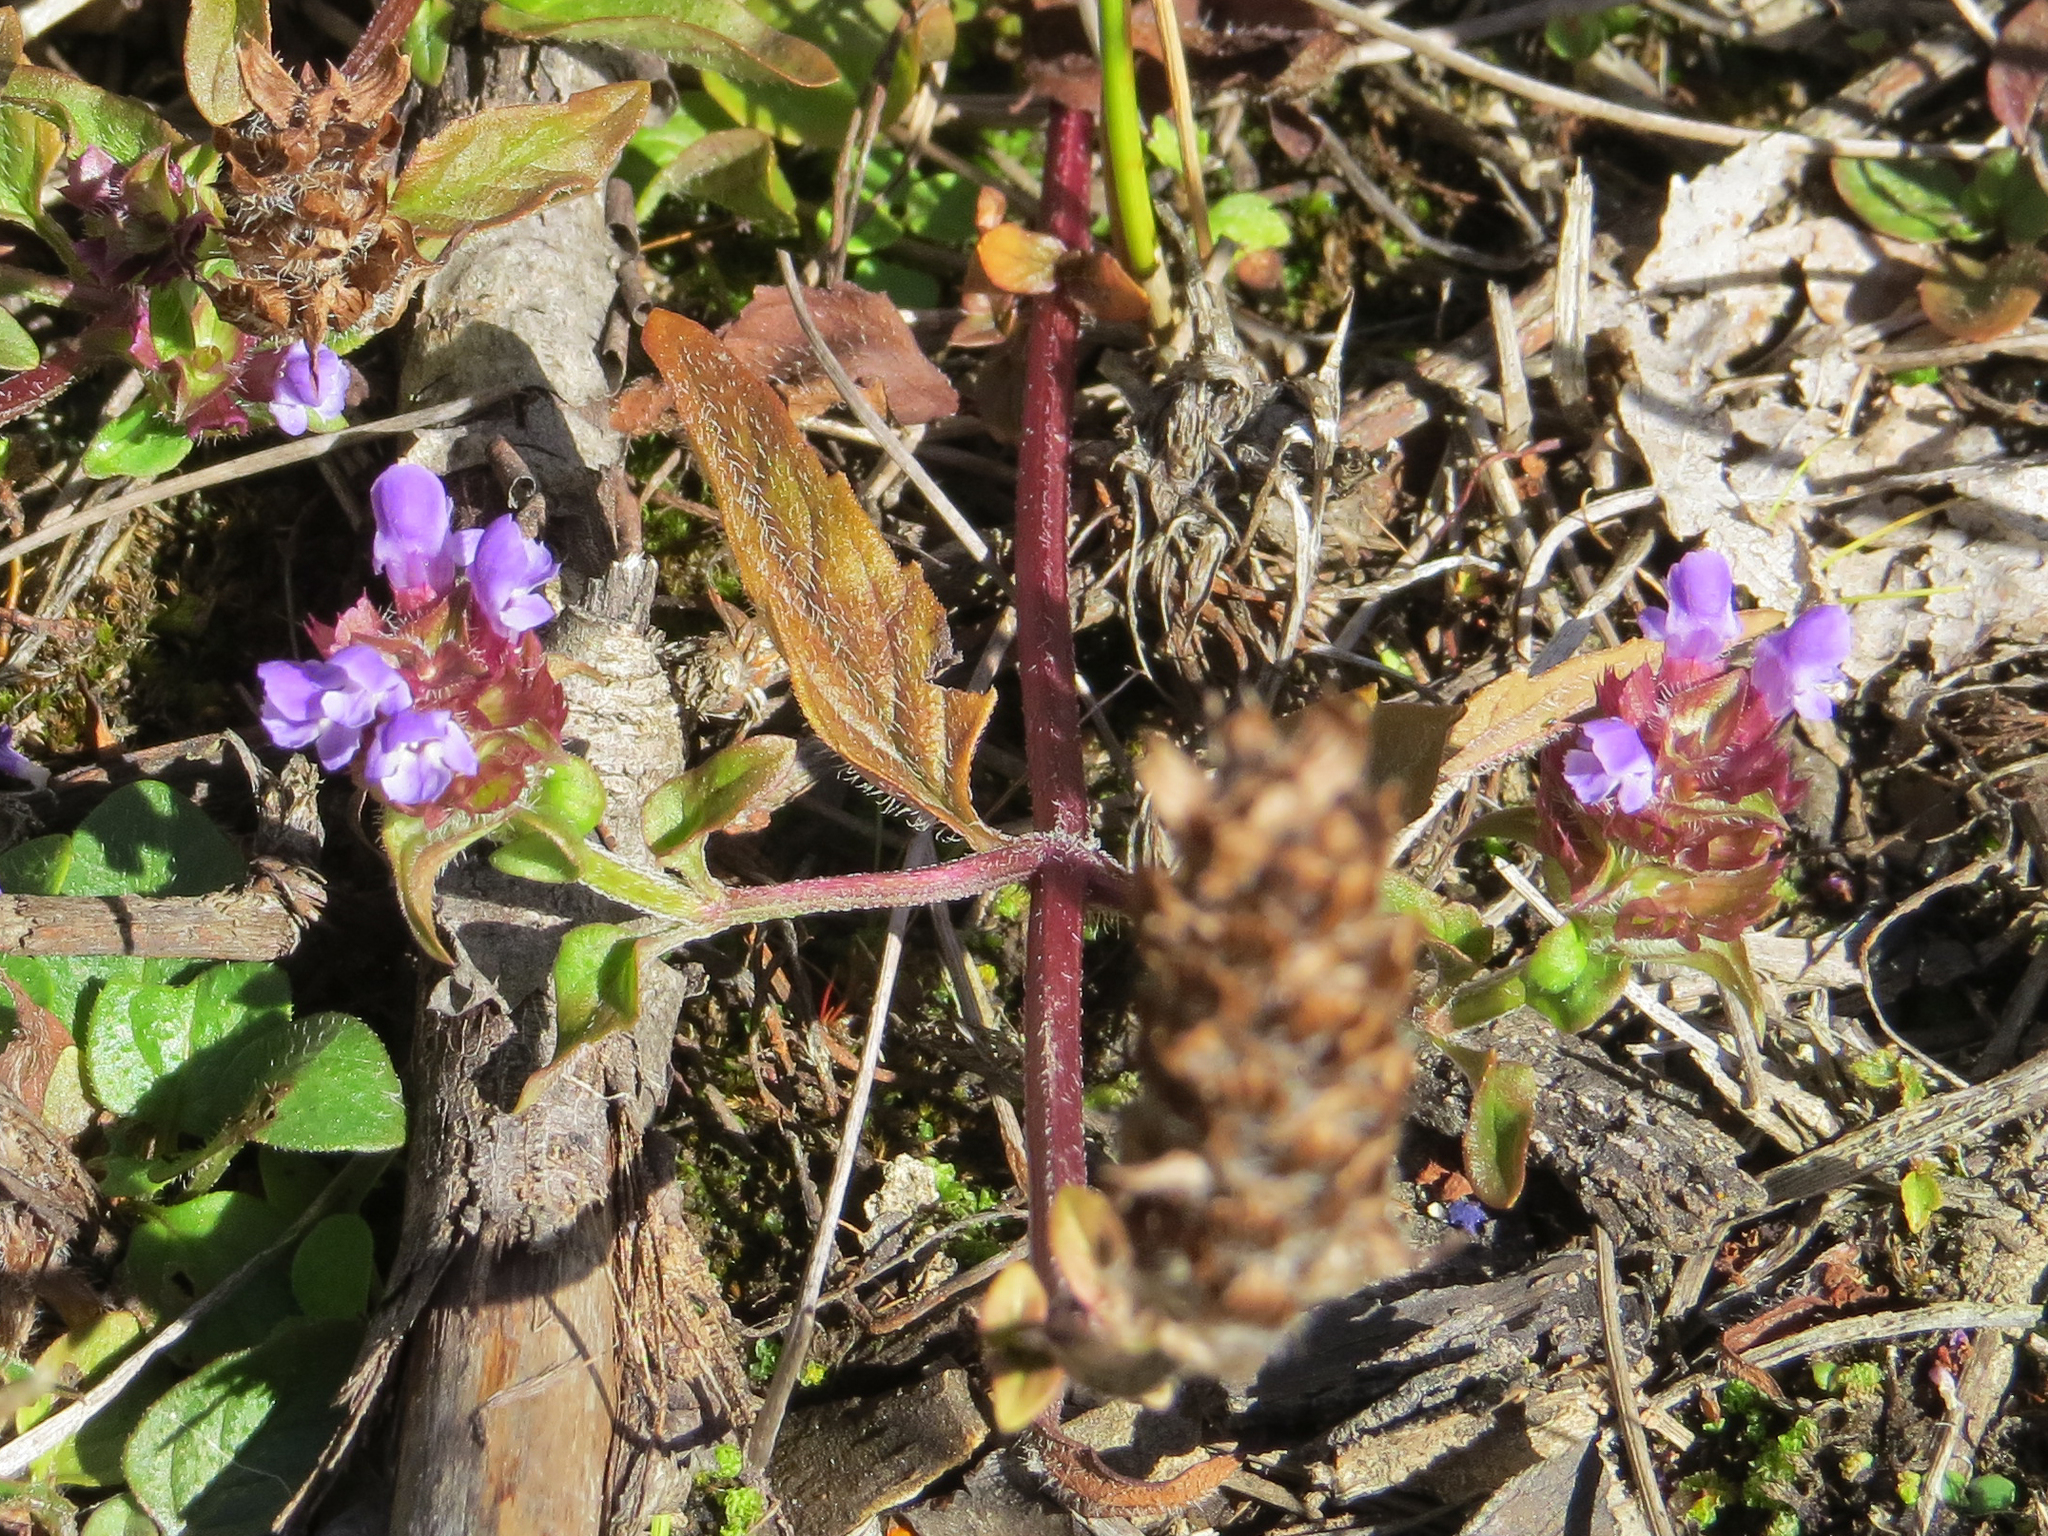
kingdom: Plantae
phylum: Tracheophyta
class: Magnoliopsida
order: Lamiales
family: Lamiaceae
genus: Prunella
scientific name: Prunella vulgaris
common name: Heal-all
